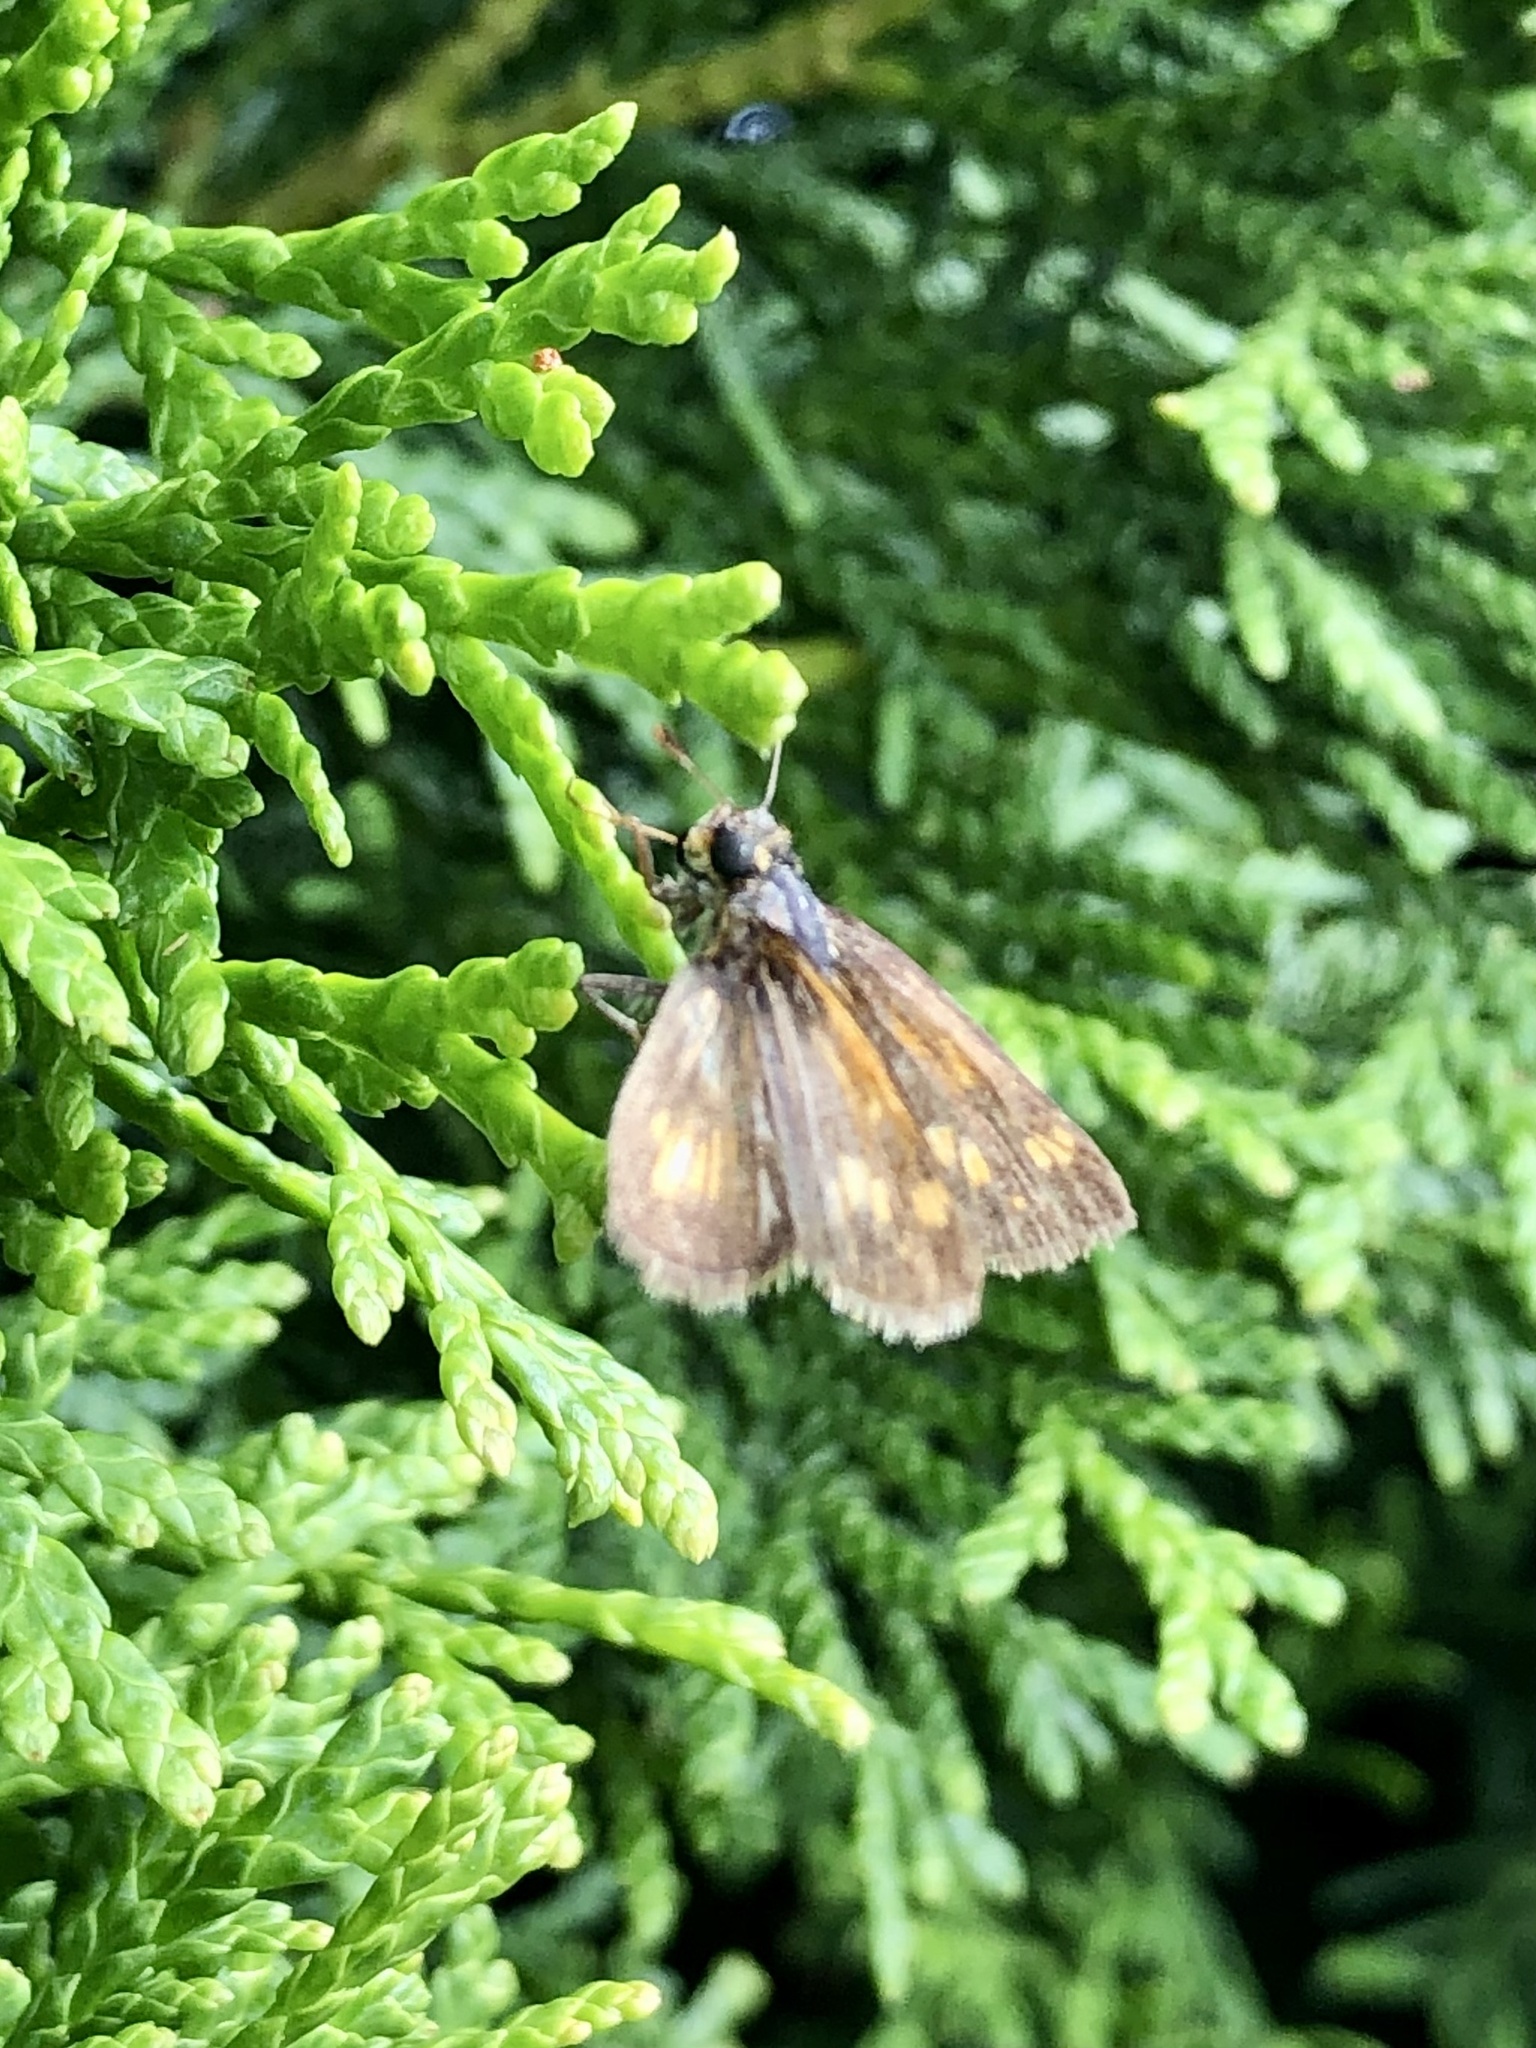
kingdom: Animalia
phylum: Arthropoda
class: Insecta
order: Lepidoptera
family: Hesperiidae
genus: Polites
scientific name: Polites coras
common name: Peck's skipper
